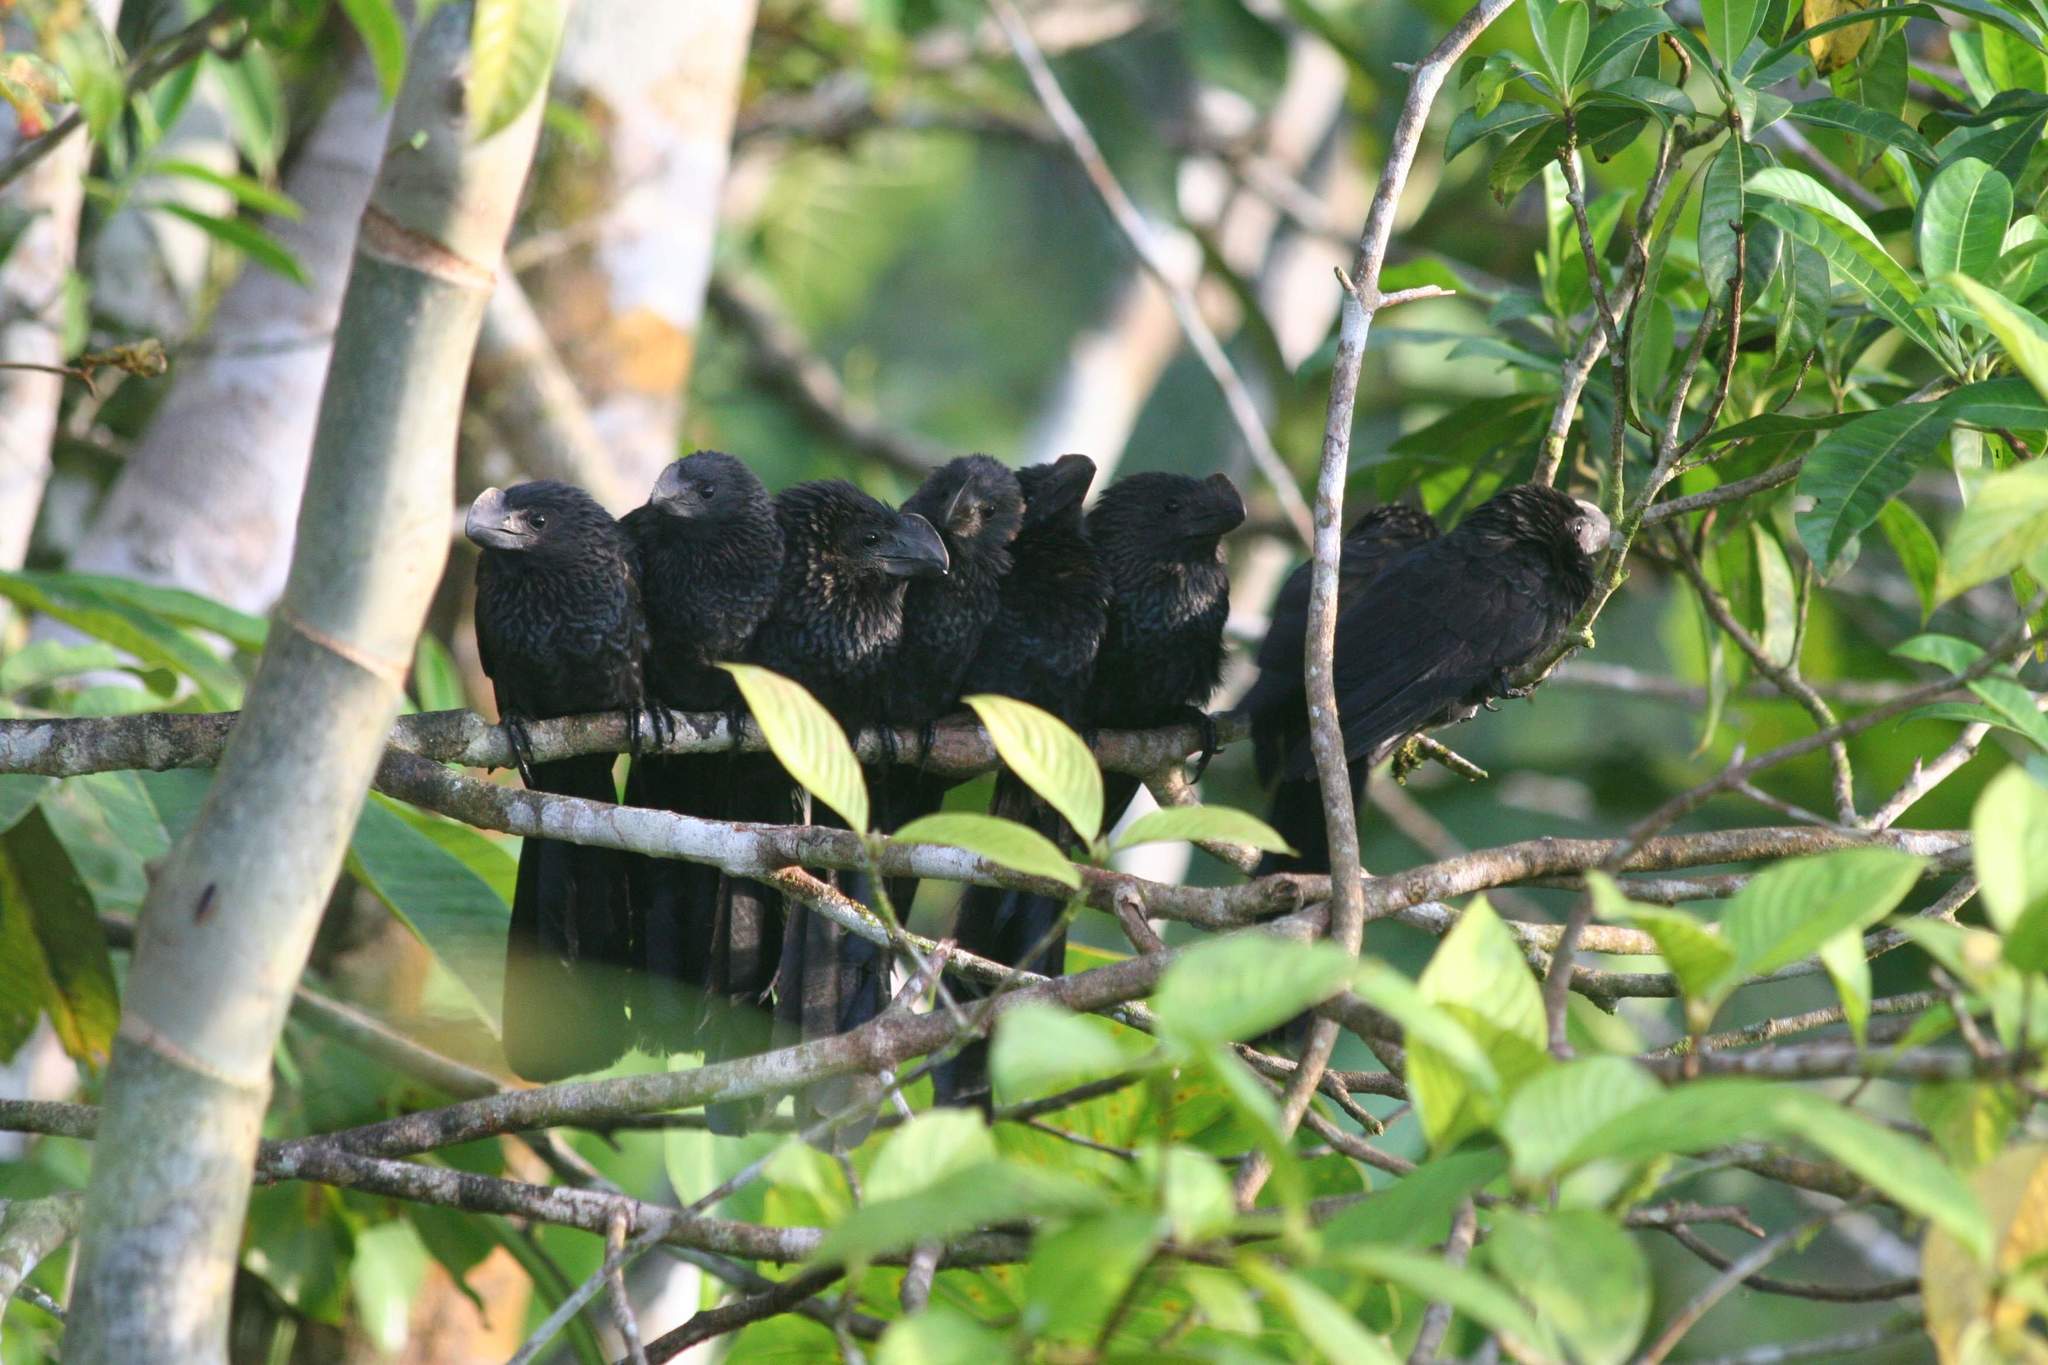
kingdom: Animalia
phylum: Chordata
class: Aves
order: Cuculiformes
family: Cuculidae
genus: Crotophaga
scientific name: Crotophaga ani
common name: Smooth-billed ani
